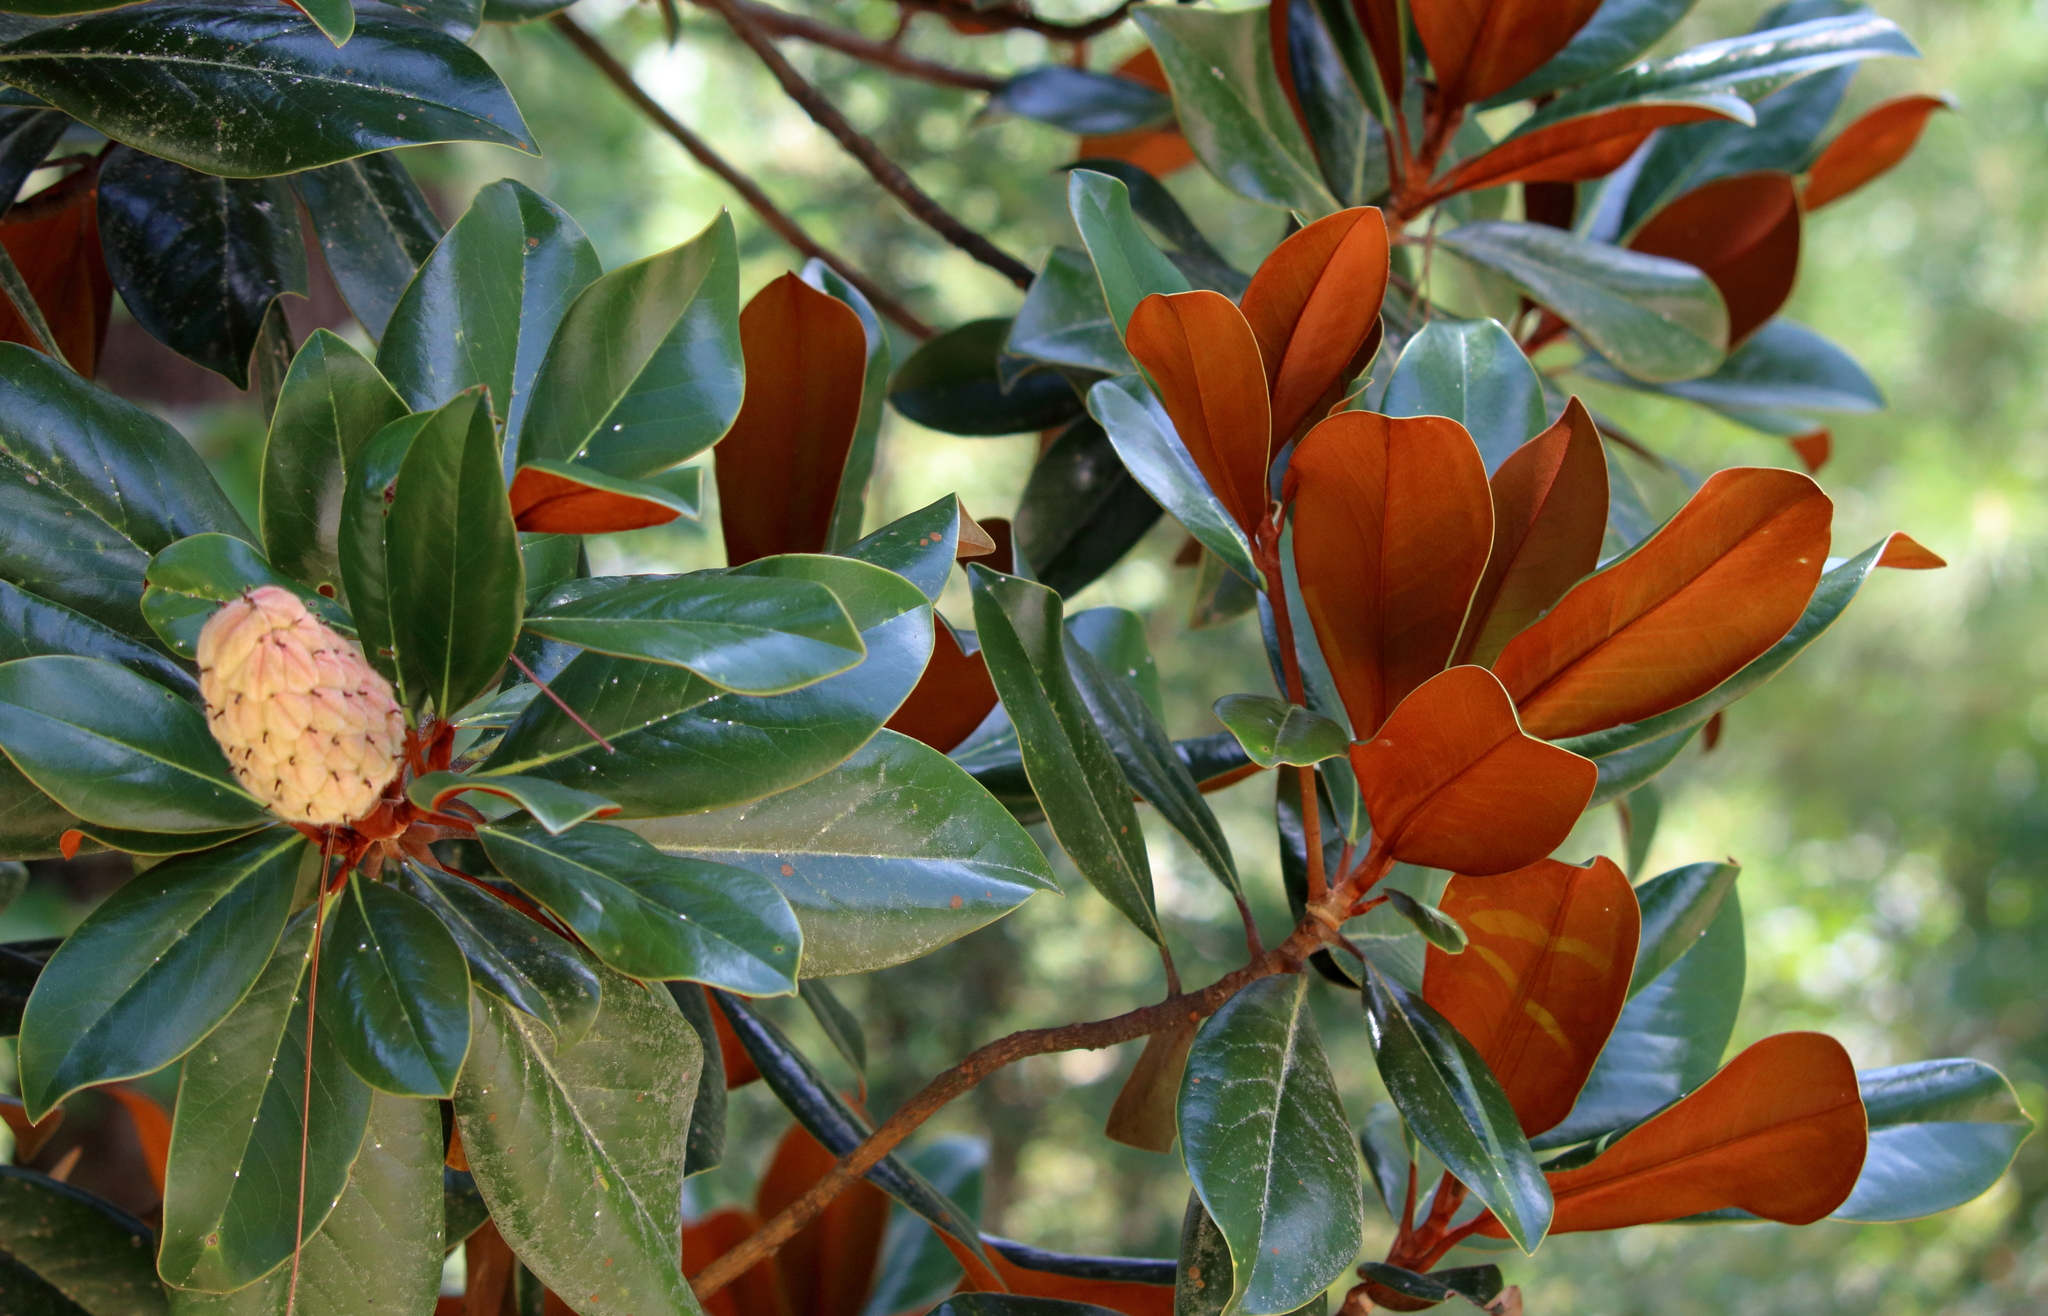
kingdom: Plantae
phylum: Tracheophyta
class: Magnoliopsida
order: Magnoliales
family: Magnoliaceae
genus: Magnolia
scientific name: Magnolia grandiflora
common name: Southern magnolia
